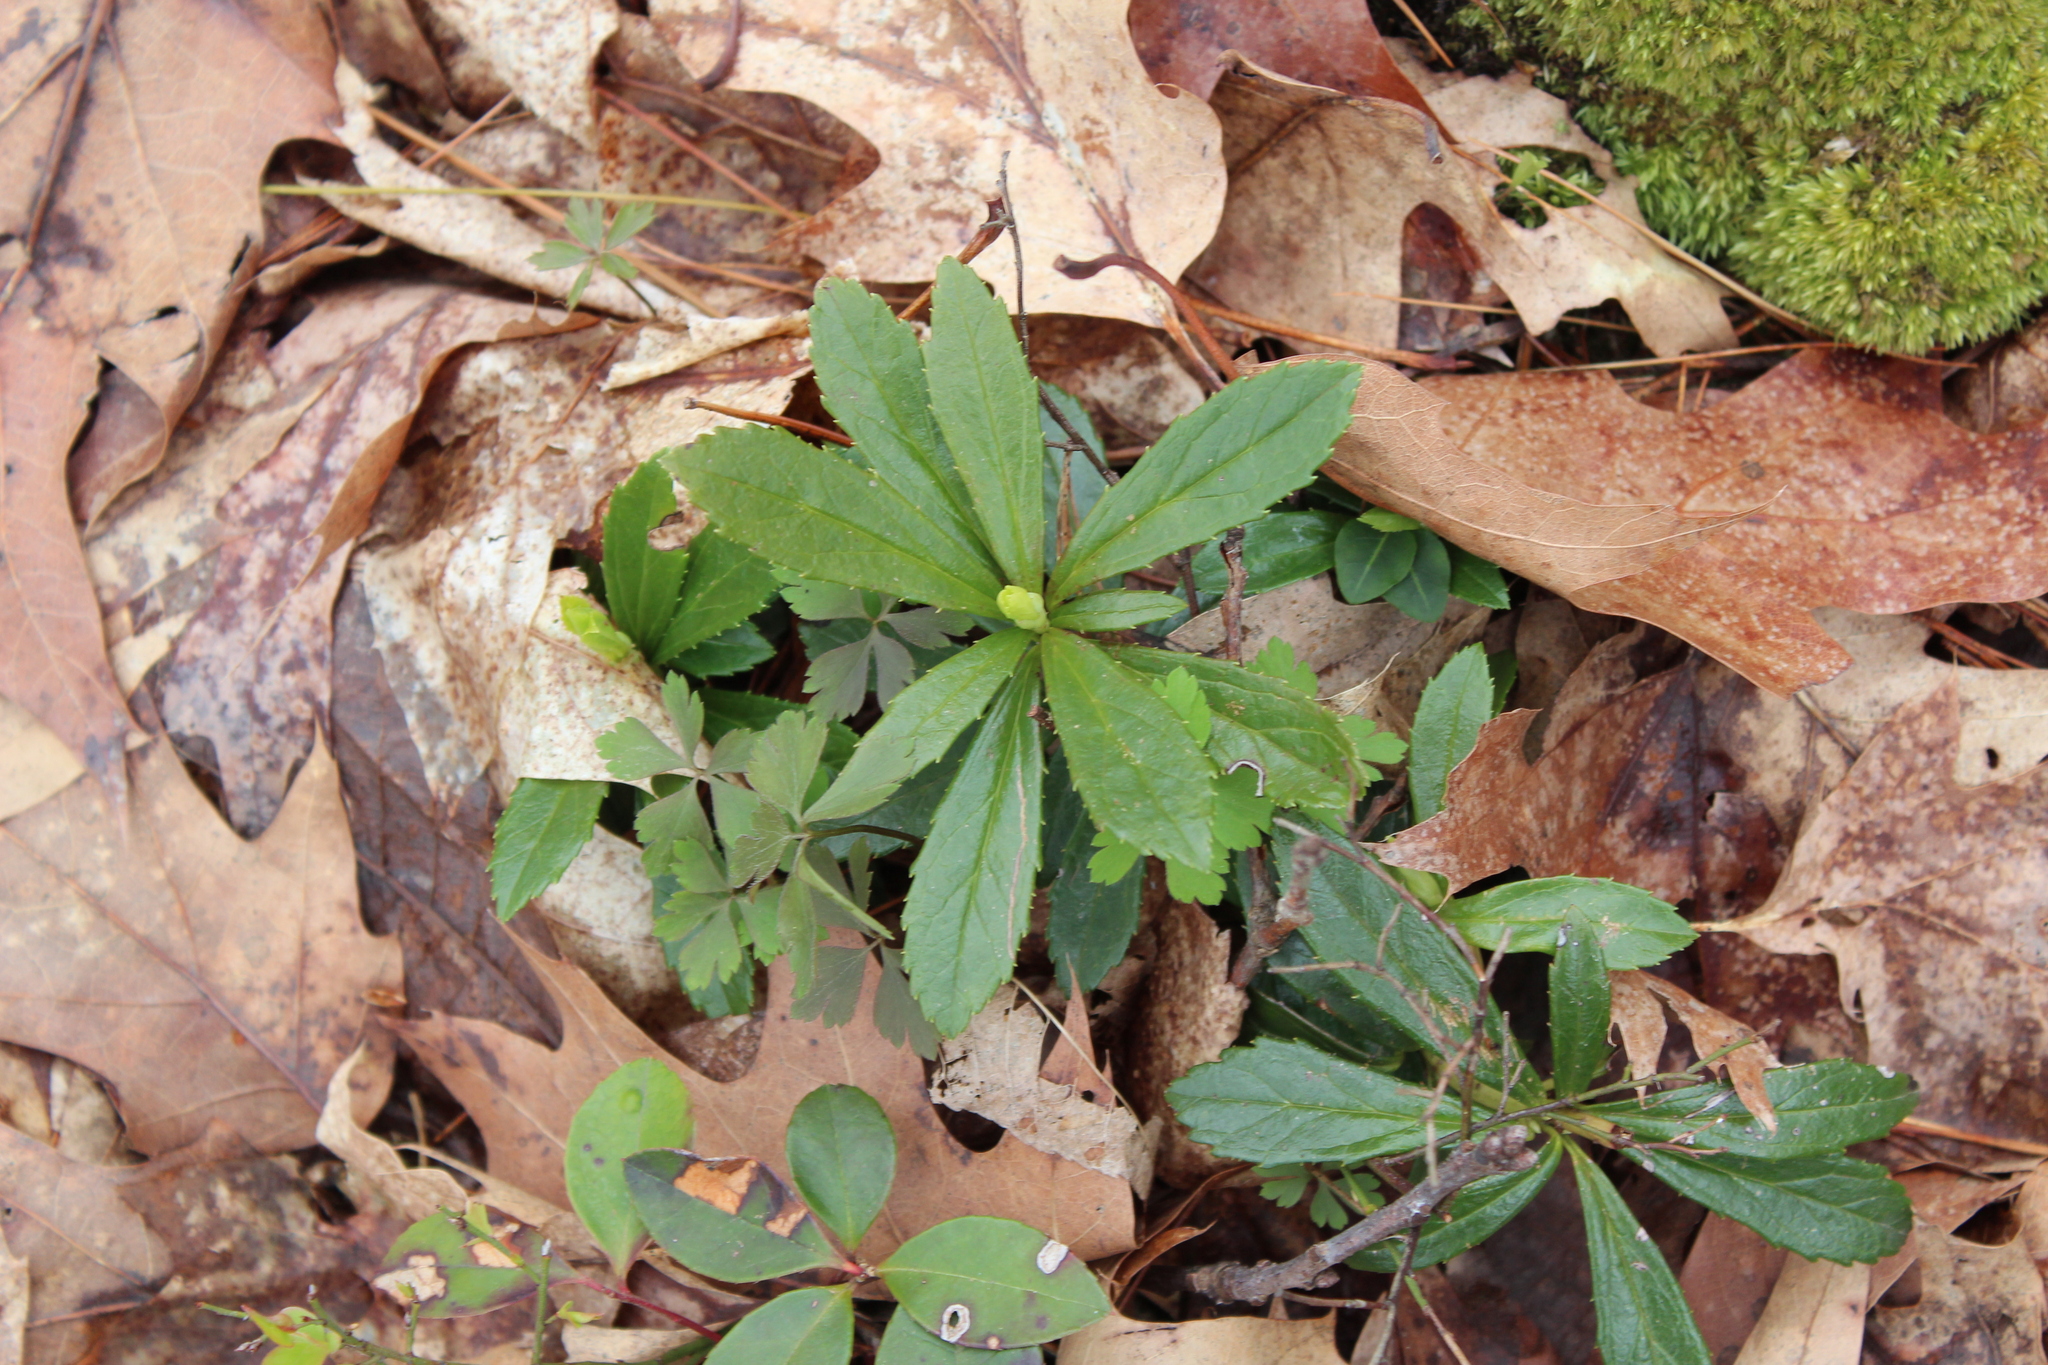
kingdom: Plantae
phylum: Tracheophyta
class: Magnoliopsida
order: Ericales
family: Ericaceae
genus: Chimaphila
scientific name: Chimaphila umbellata
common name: Pipsissewa
